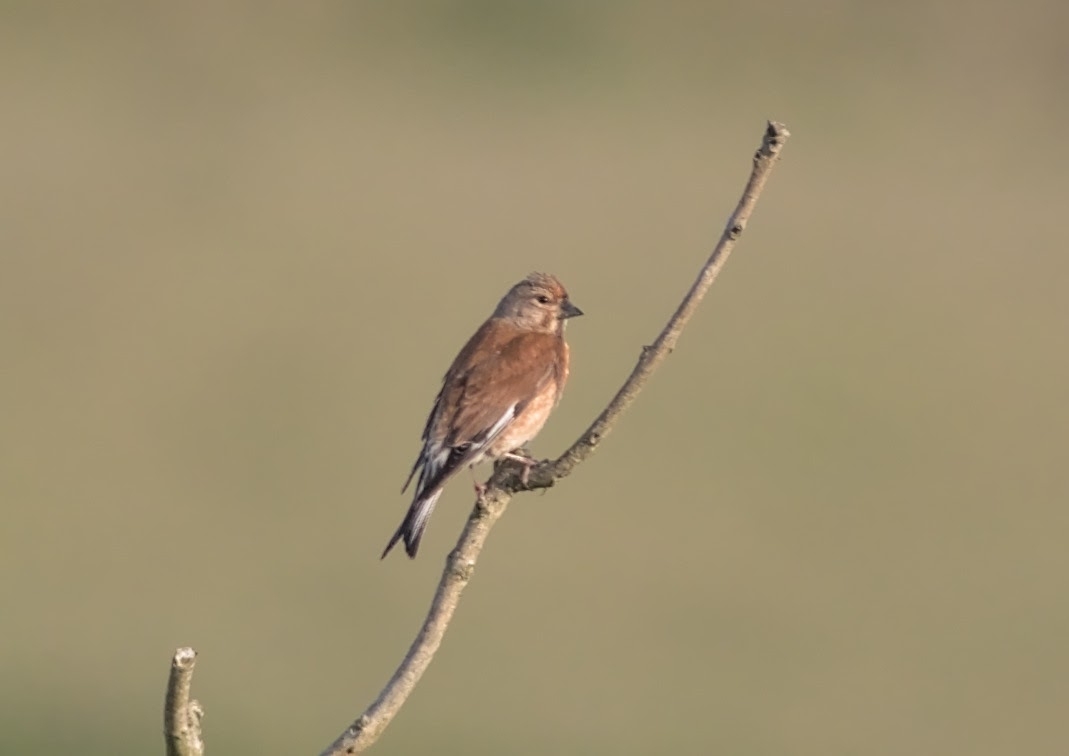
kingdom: Animalia
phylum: Chordata
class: Aves
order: Passeriformes
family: Fringillidae
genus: Linaria
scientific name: Linaria cannabina
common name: Common linnet
